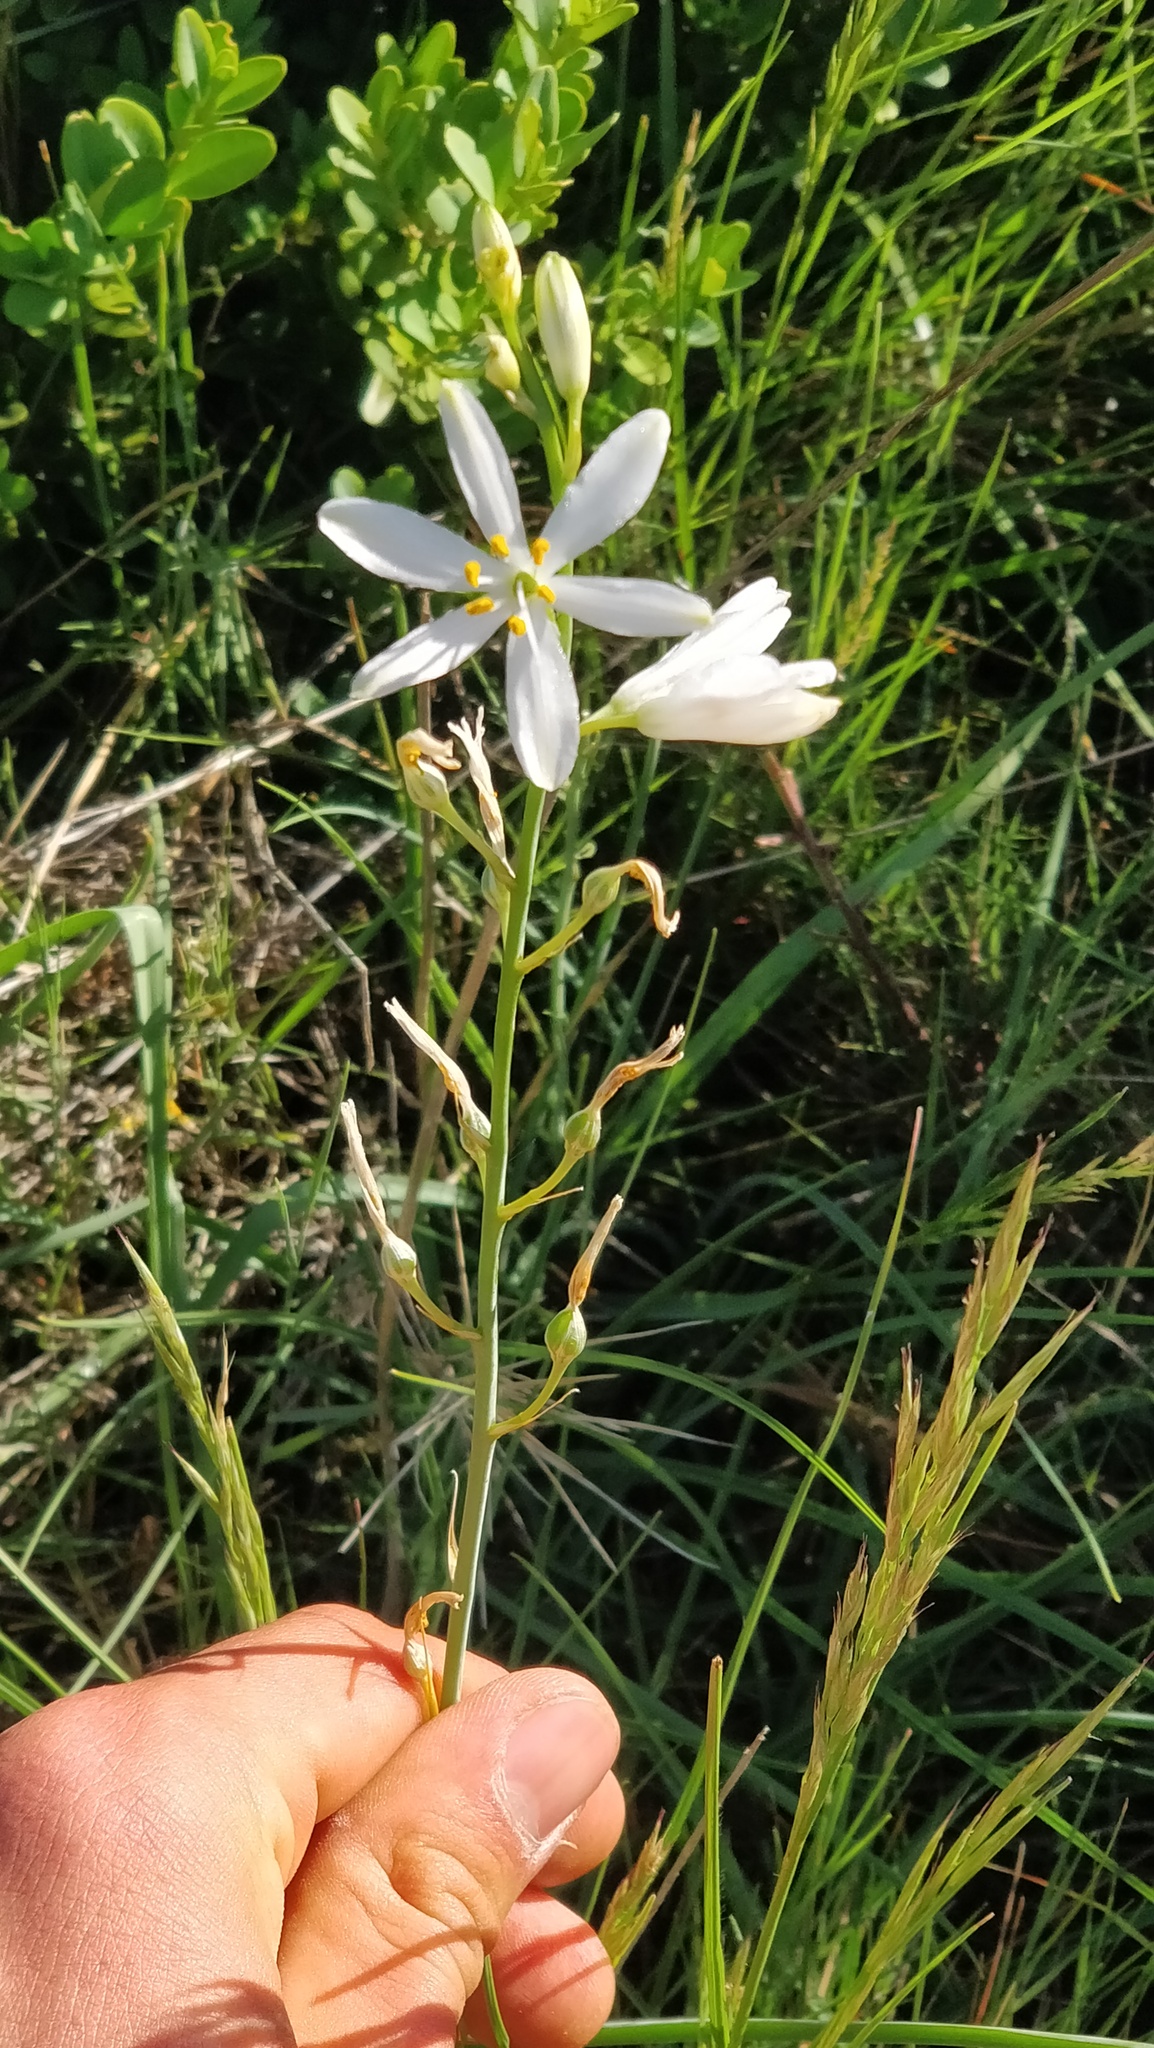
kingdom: Plantae
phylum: Tracheophyta
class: Liliopsida
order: Asparagales
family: Asparagaceae
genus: Anthericum
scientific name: Anthericum liliago
